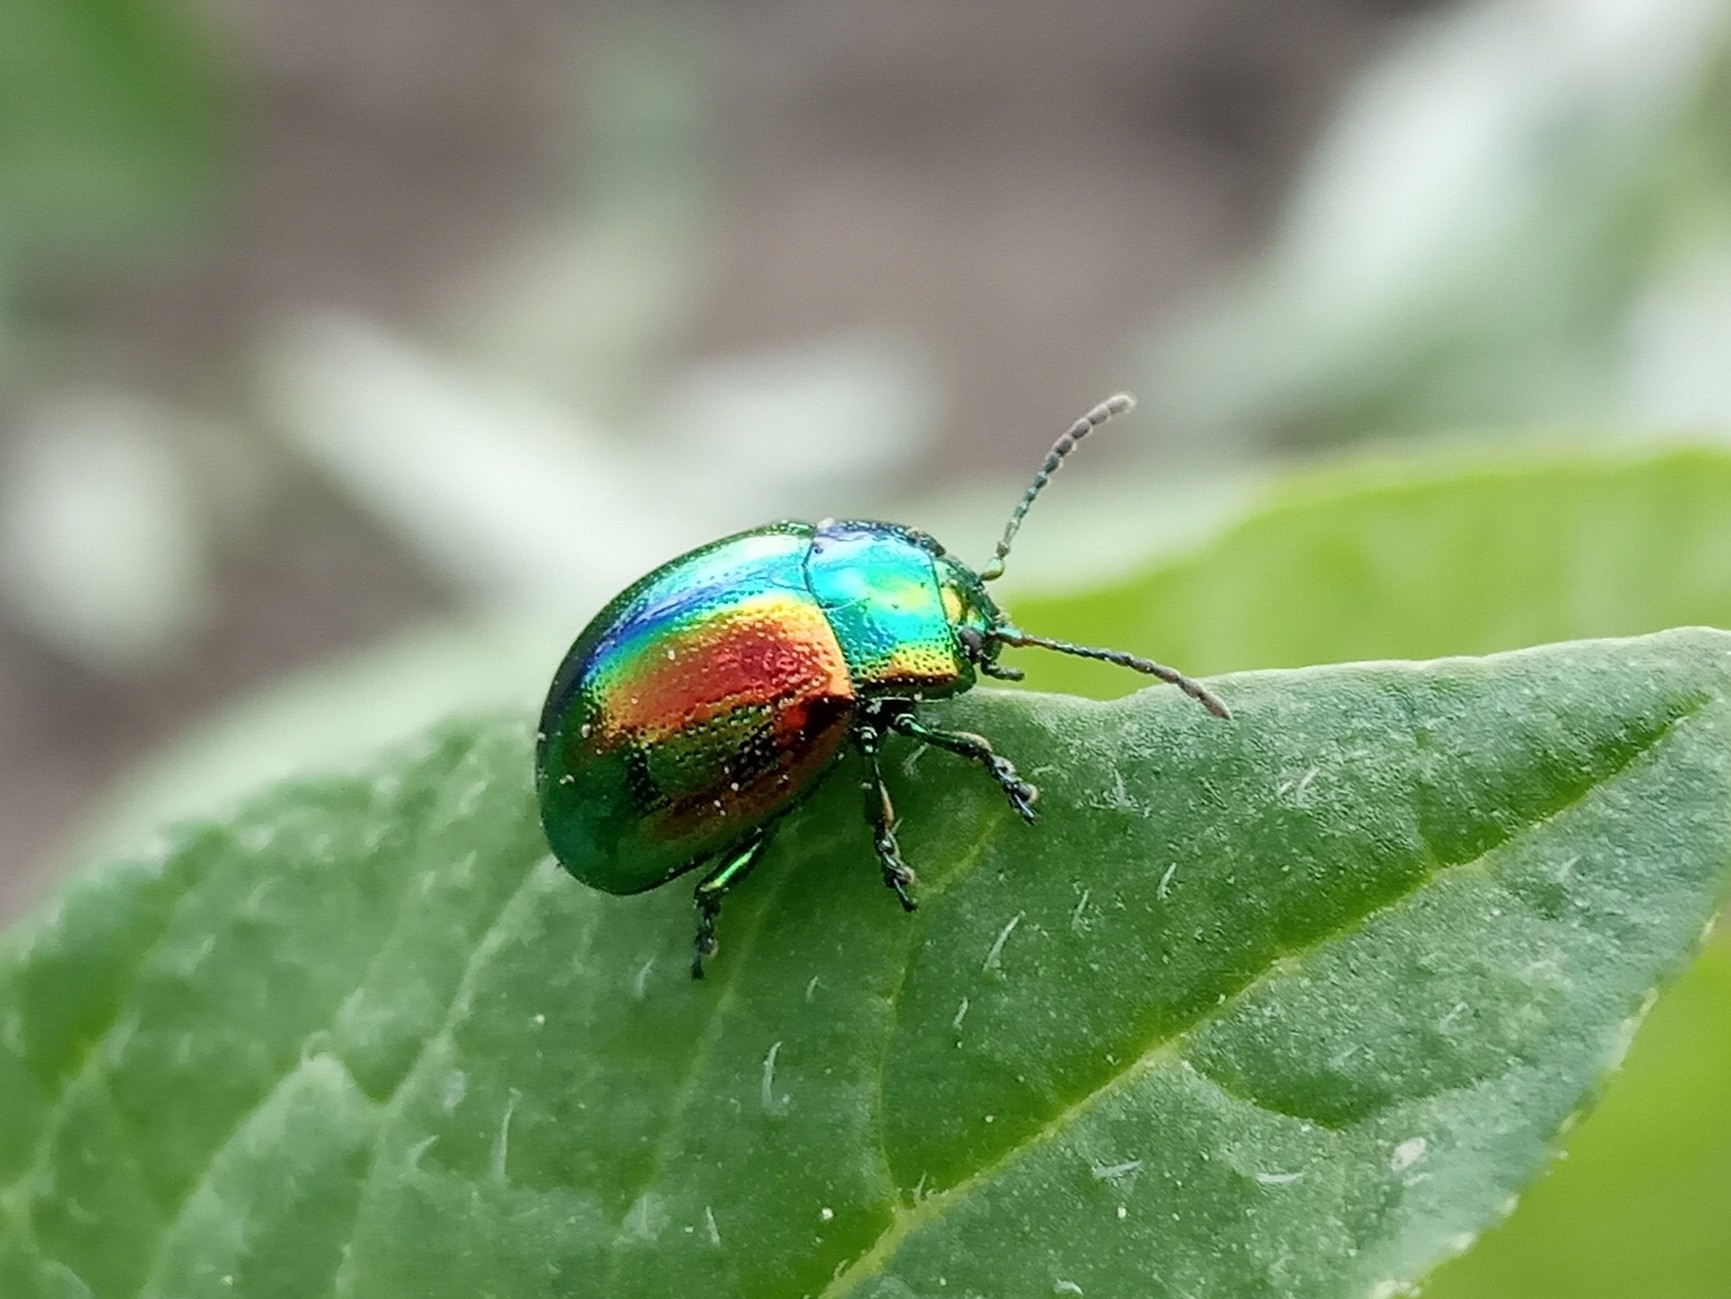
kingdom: Animalia
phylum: Arthropoda
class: Insecta
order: Coleoptera
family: Chrysomelidae
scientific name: Chrysomelidae
